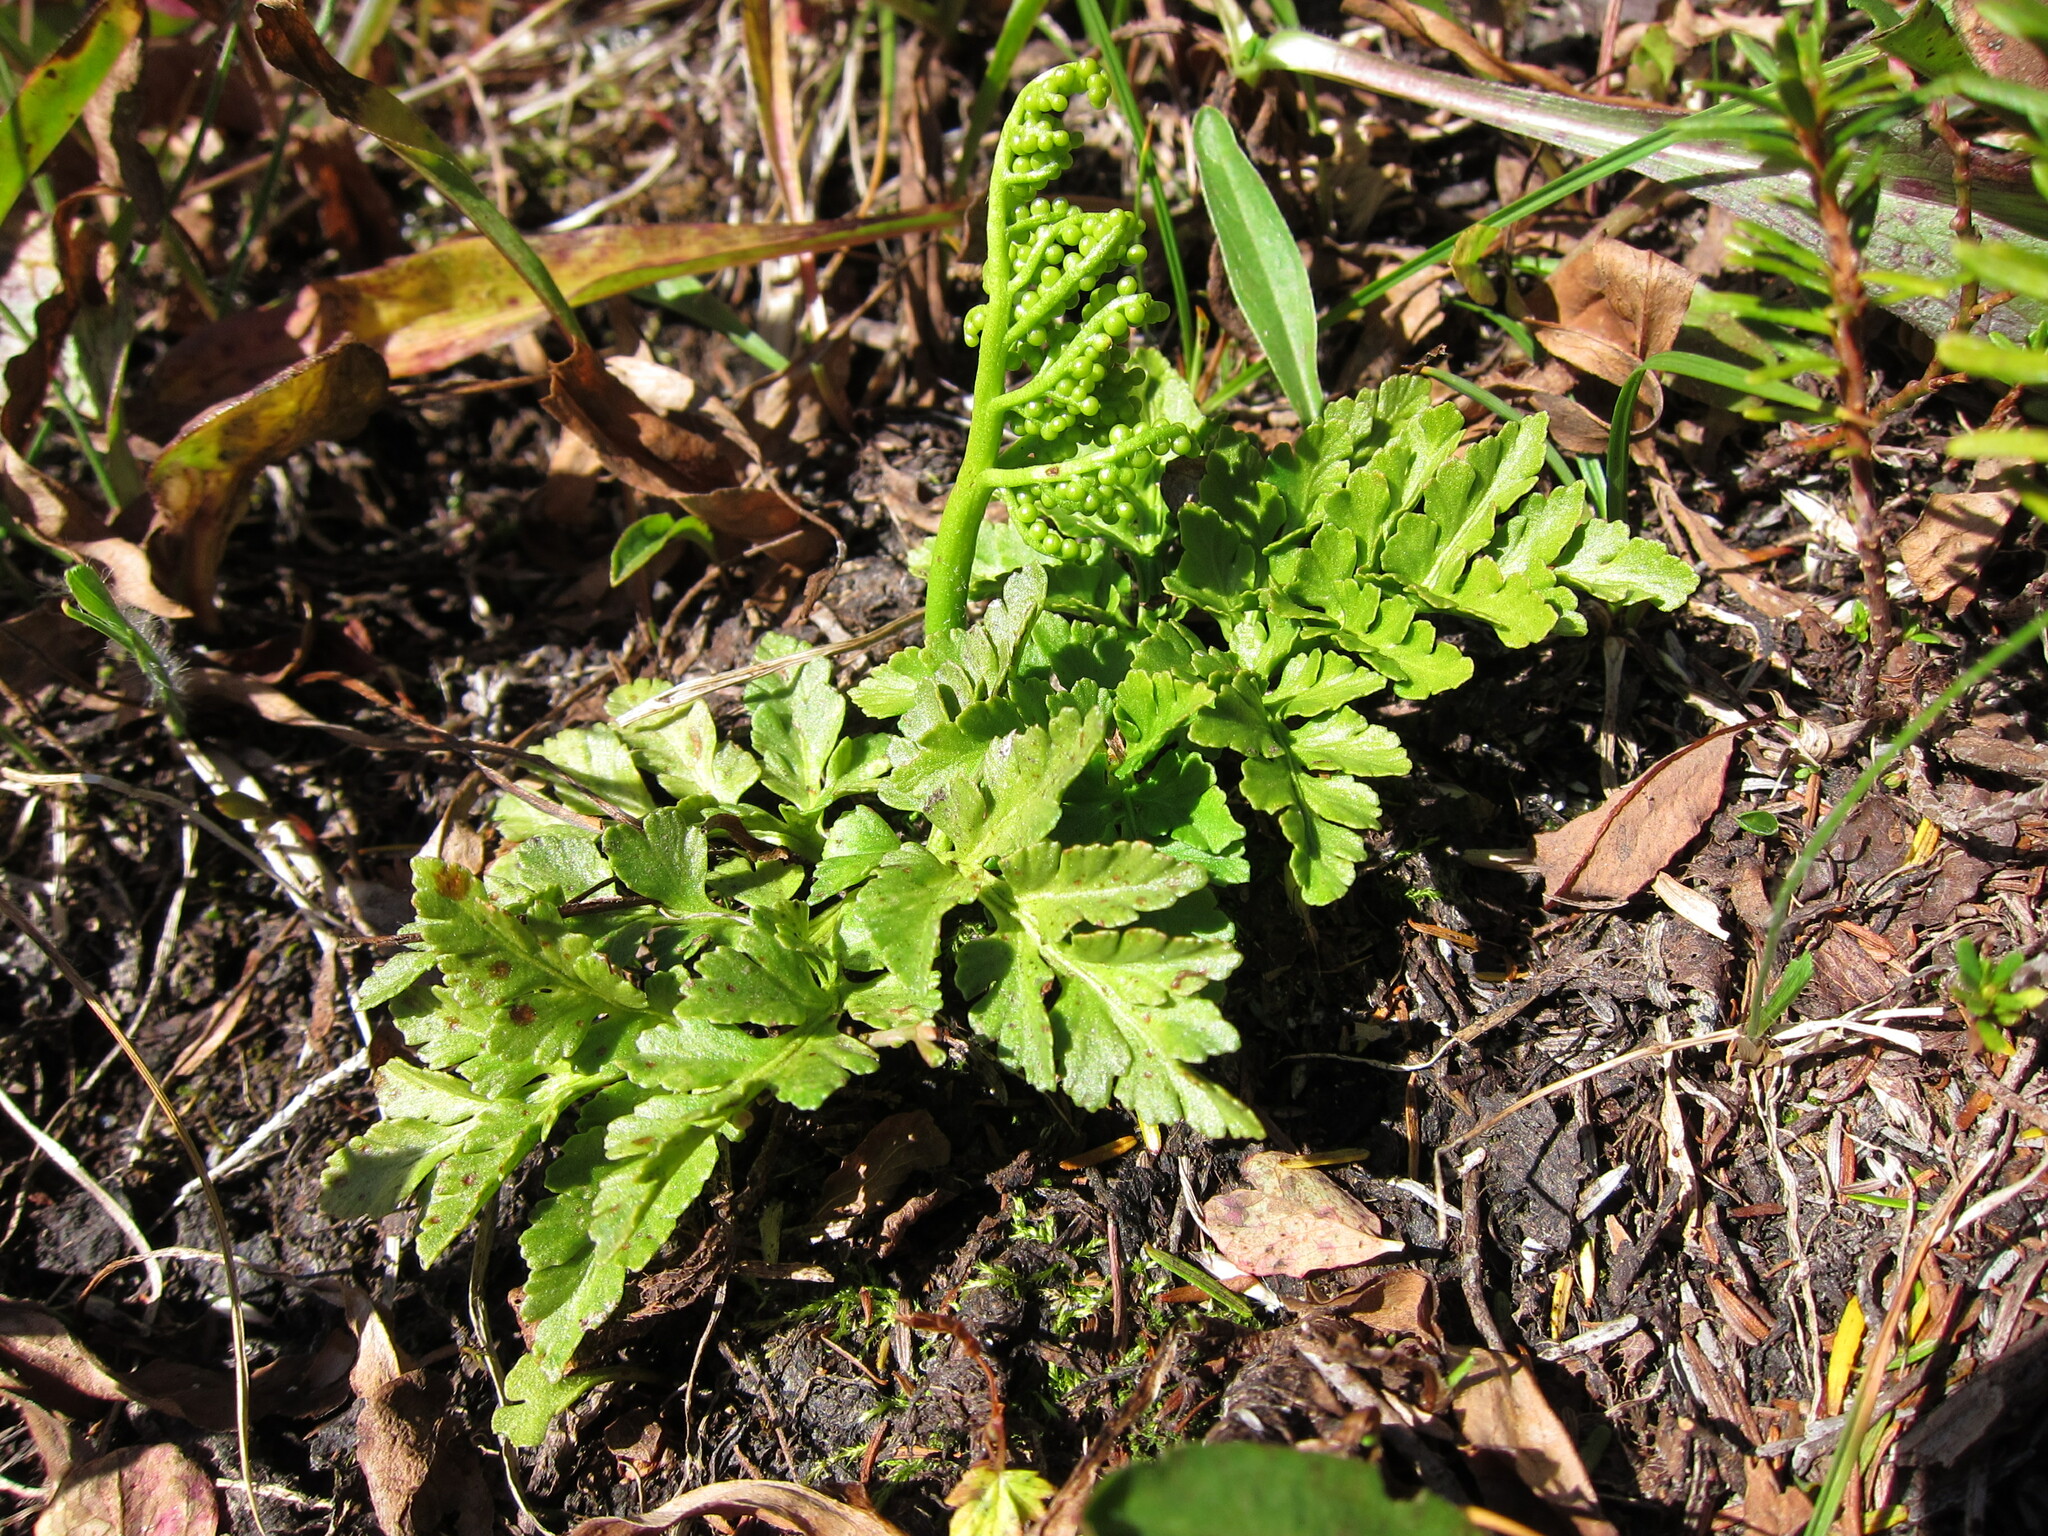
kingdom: Plantae
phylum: Tracheophyta
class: Polypodiopsida
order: Ophioglossales
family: Ophioglossaceae
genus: Sceptridium
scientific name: Sceptridium multifidum
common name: Leathery grape fern
